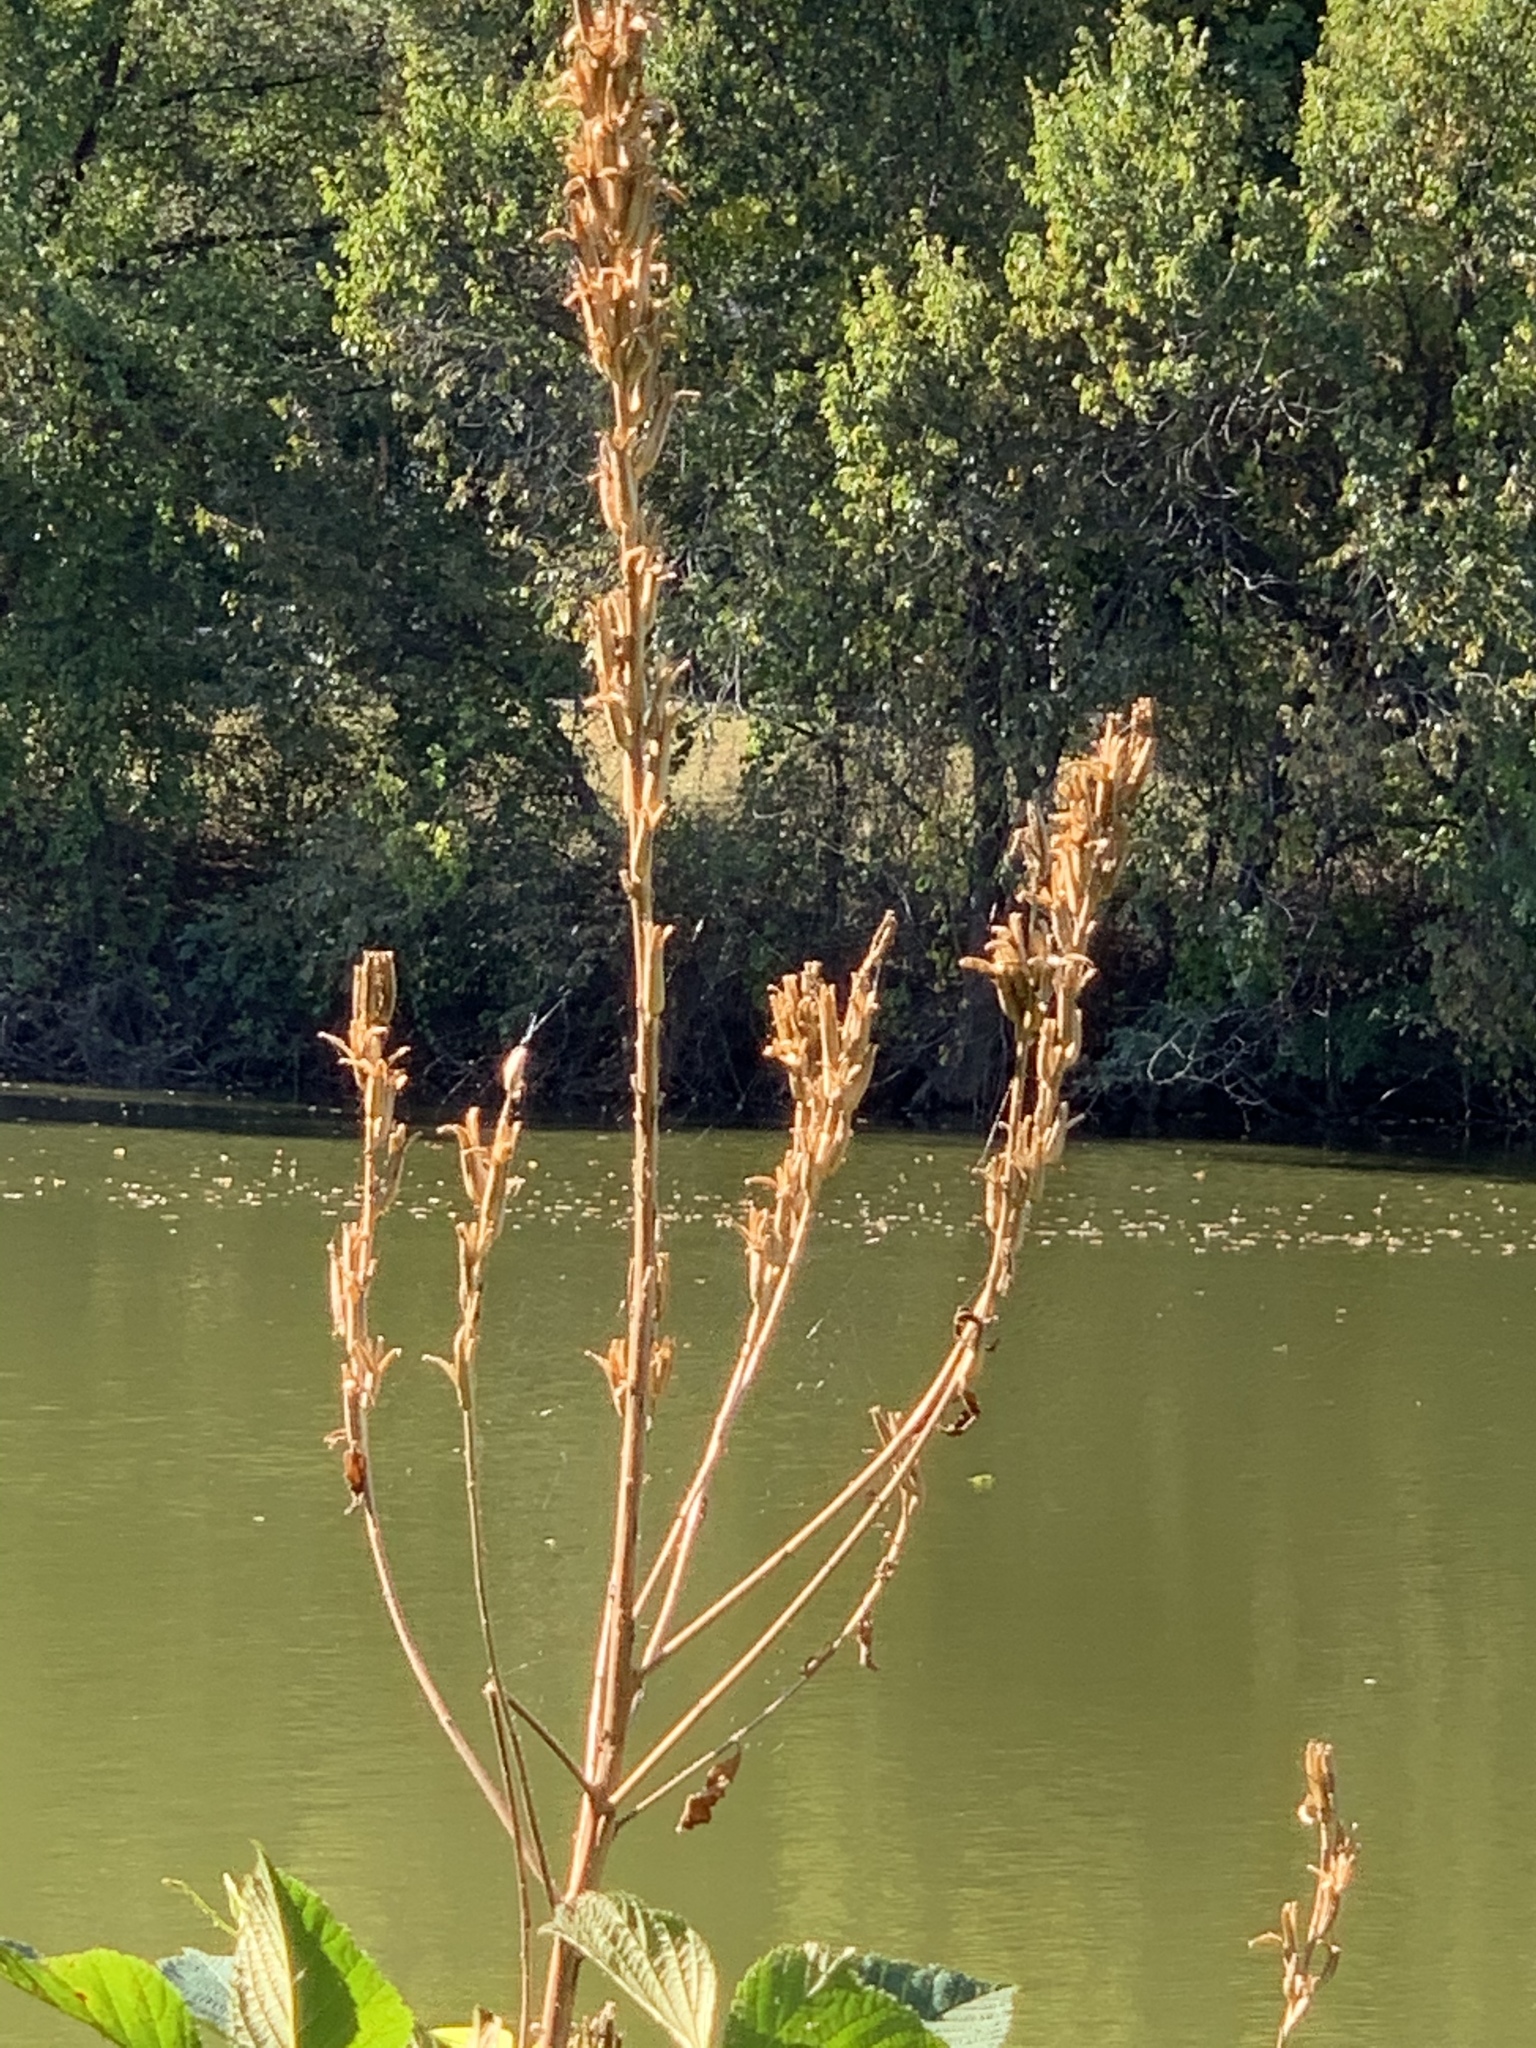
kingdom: Plantae
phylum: Tracheophyta
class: Magnoliopsida
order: Myrtales
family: Onagraceae
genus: Oenothera
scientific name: Oenothera biennis
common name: Common evening-primrose
